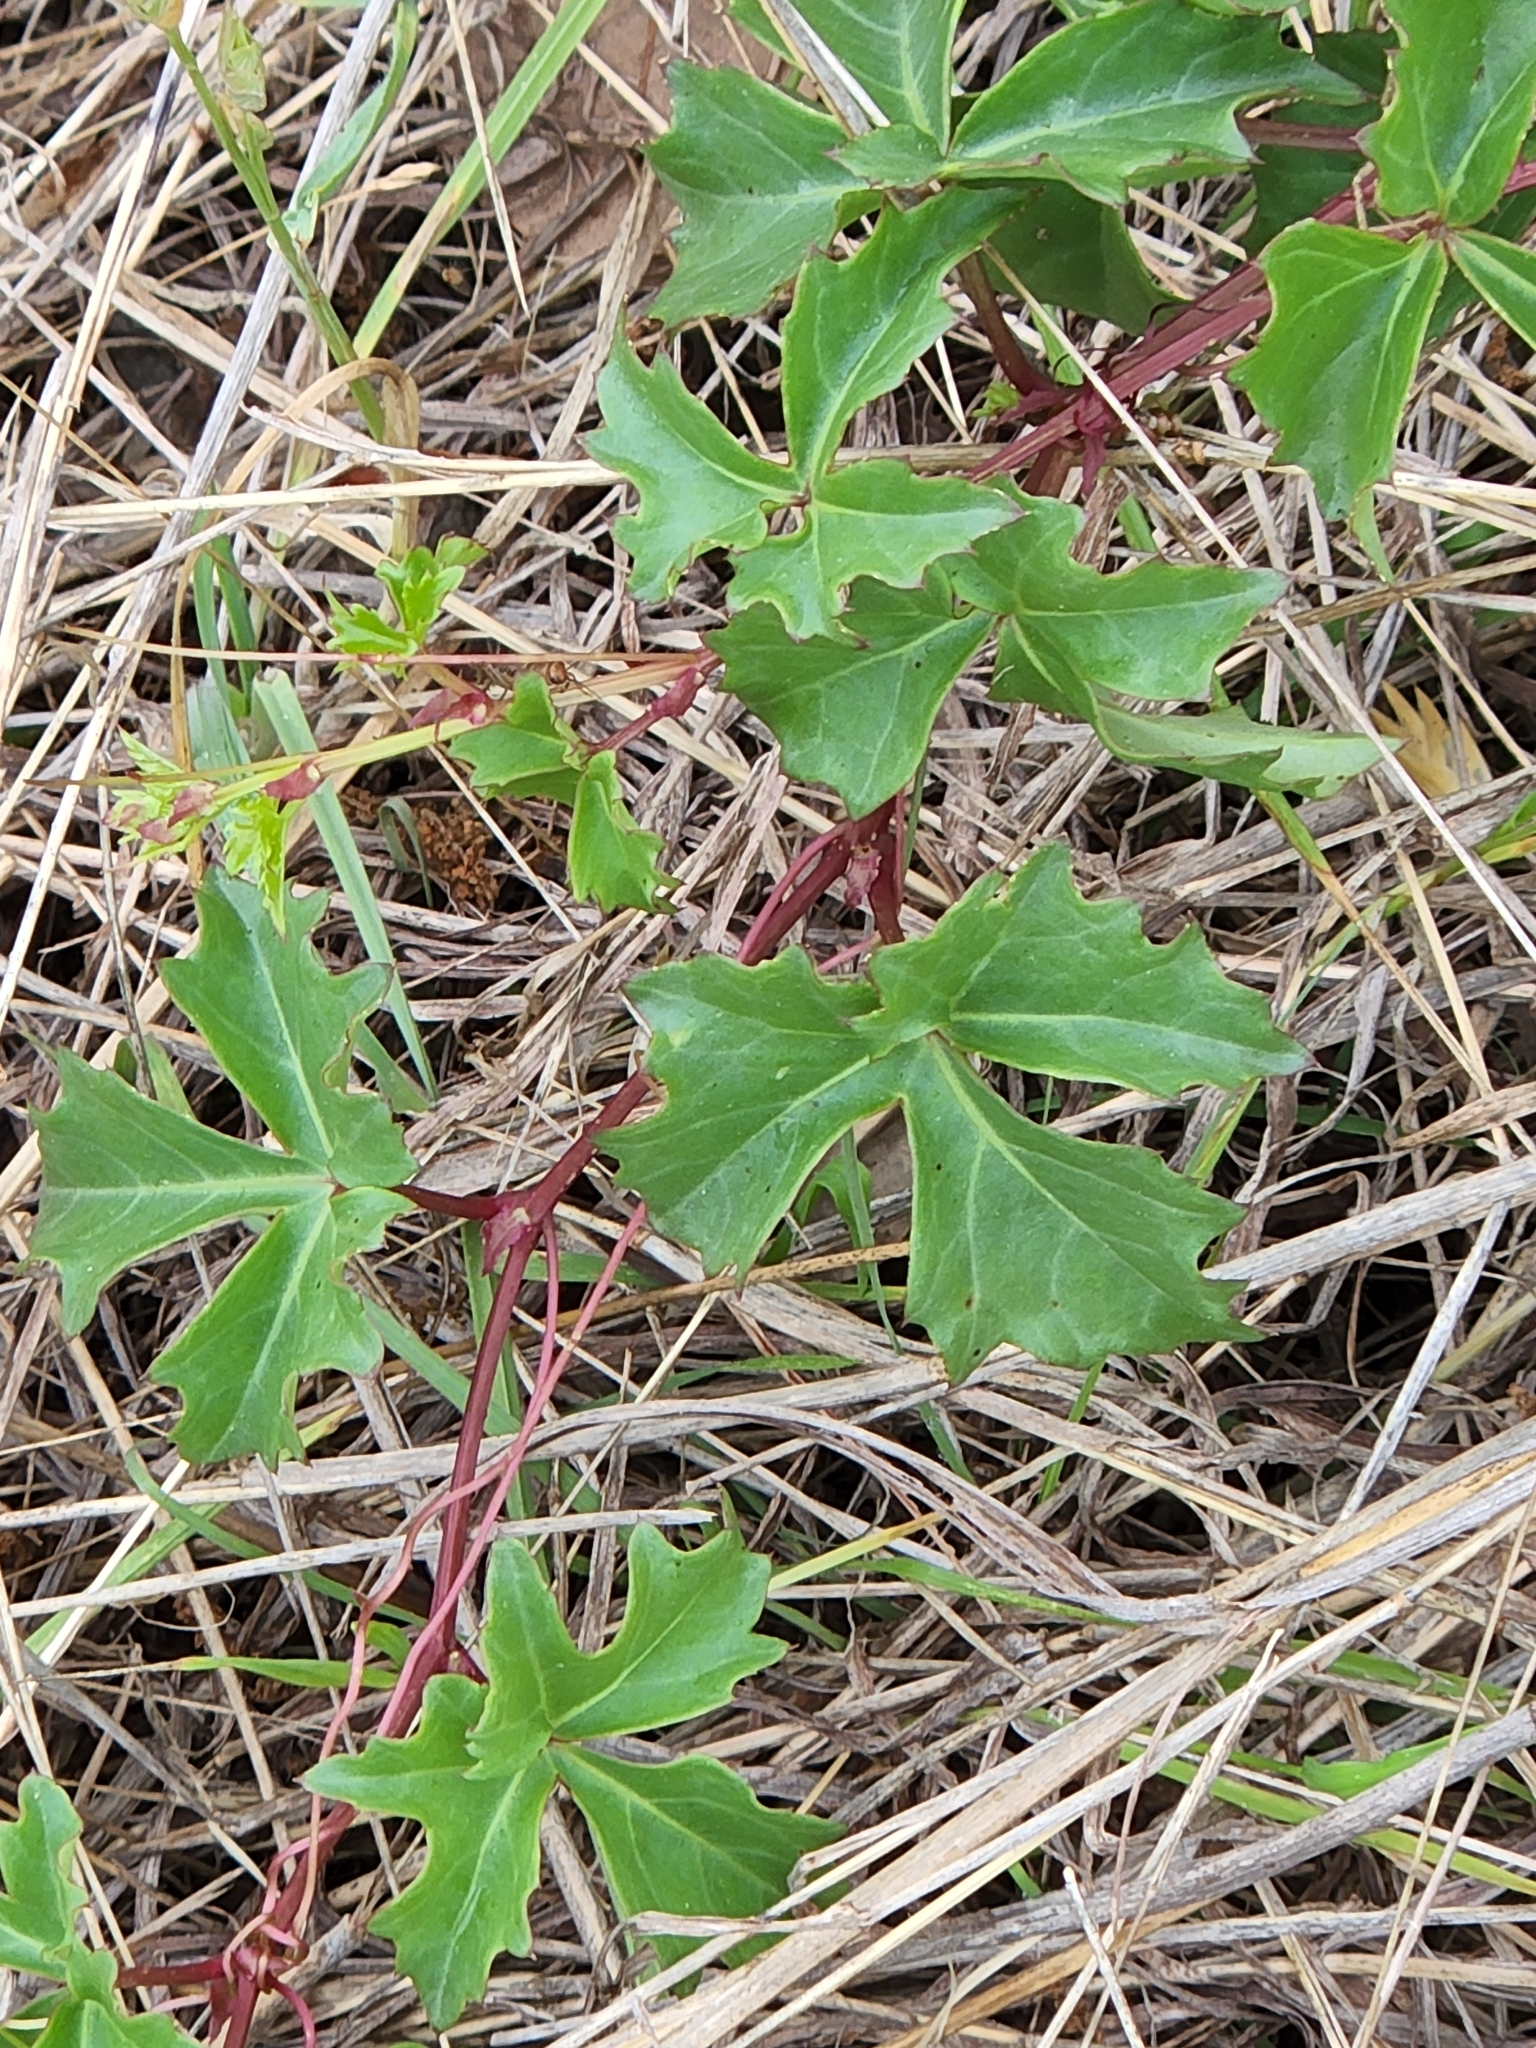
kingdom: Plantae
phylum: Tracheophyta
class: Magnoliopsida
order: Vitales
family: Vitaceae
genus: Cissus
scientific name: Cissus trifoliata
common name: Vine-sorrel
